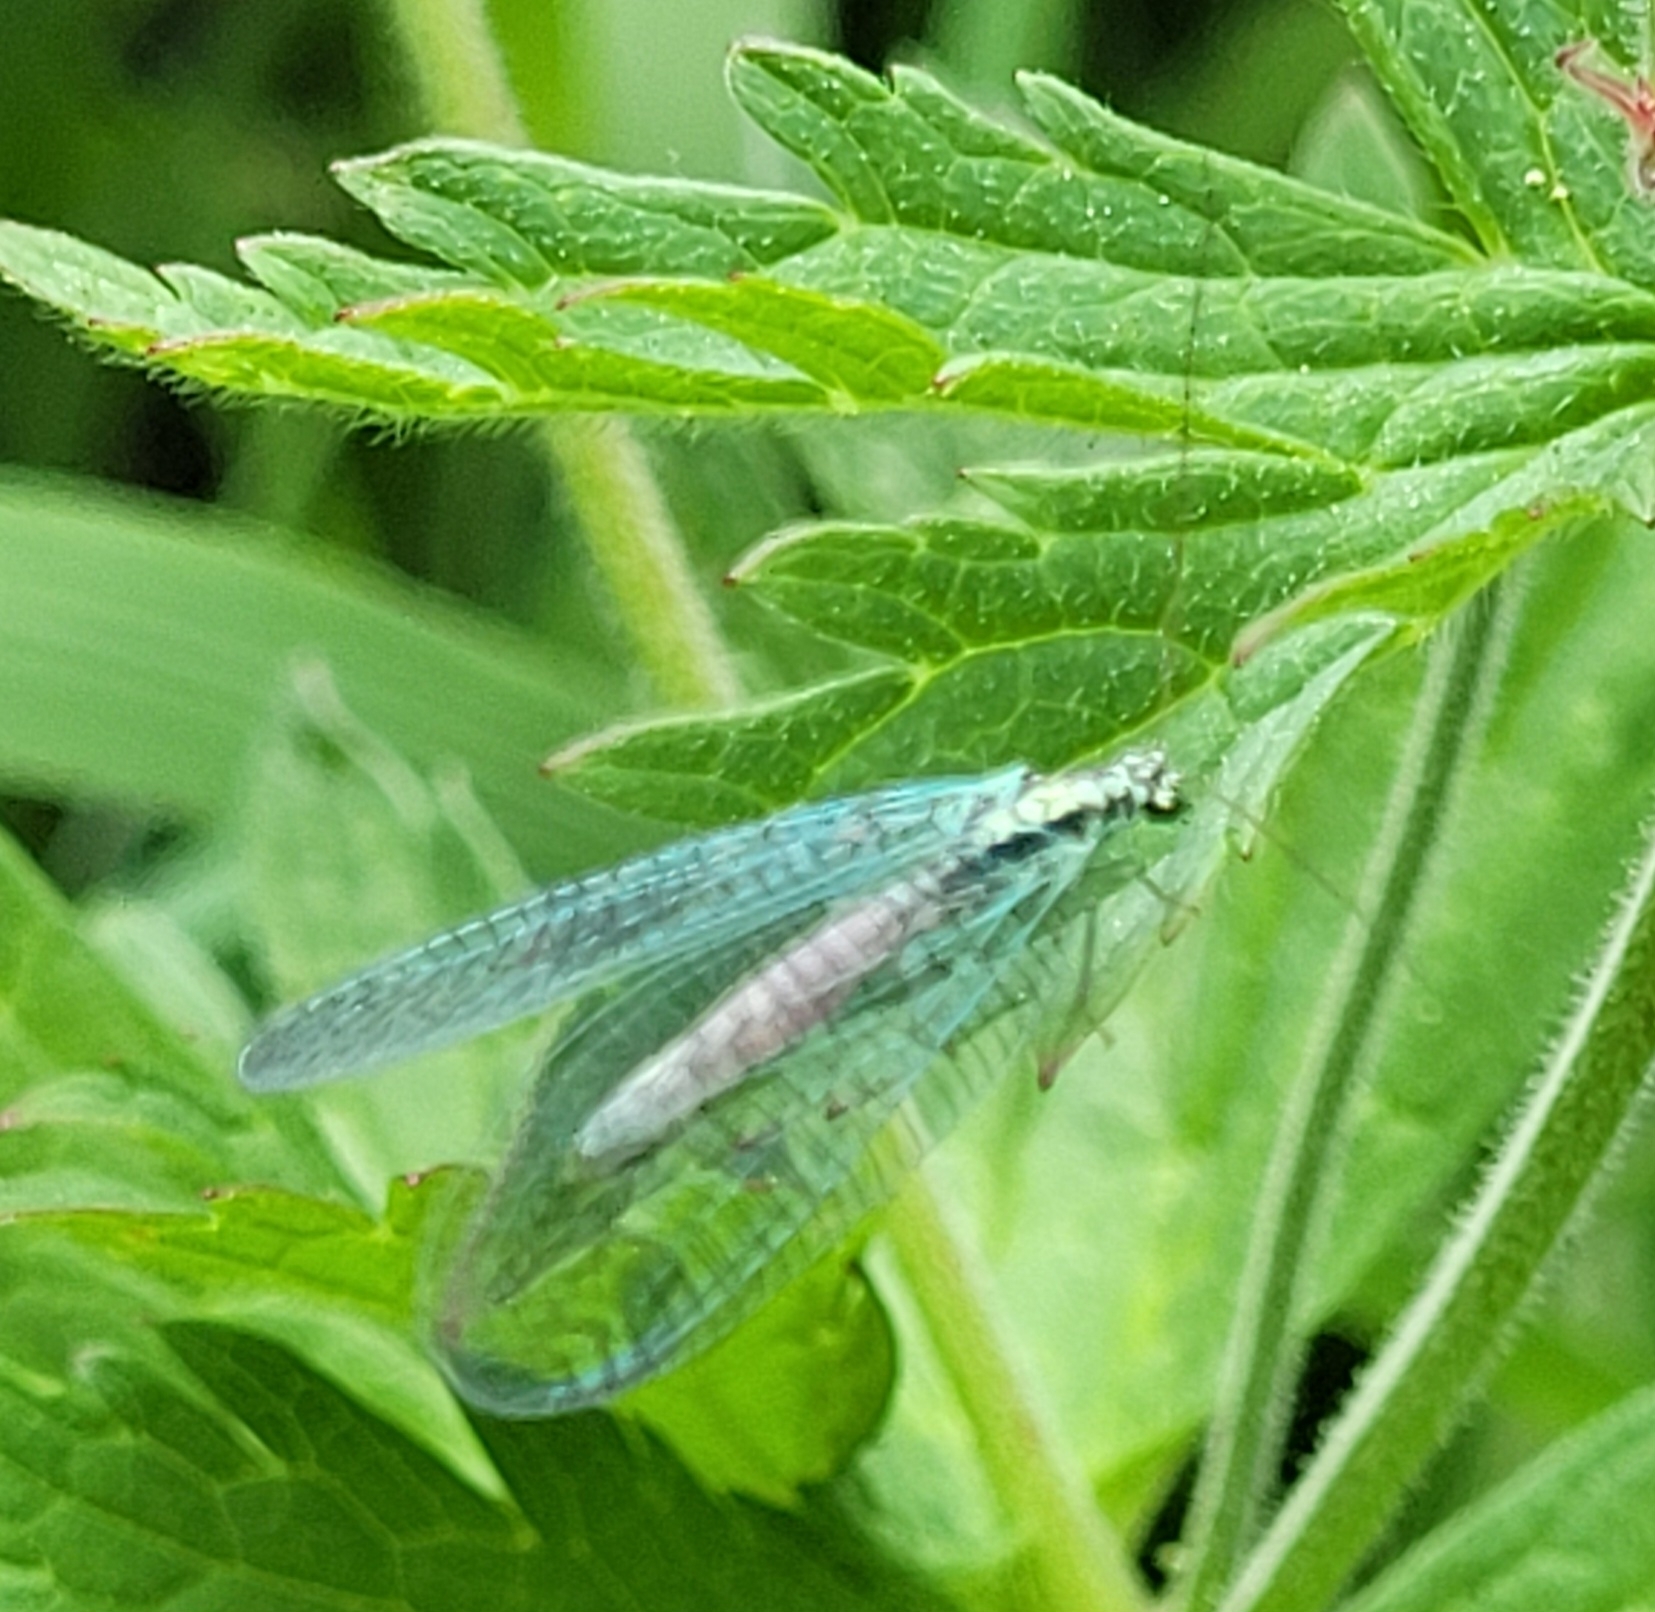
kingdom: Animalia
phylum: Arthropoda
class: Insecta
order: Neuroptera
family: Chrysopidae
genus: Chrysopa
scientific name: Chrysopa perla
